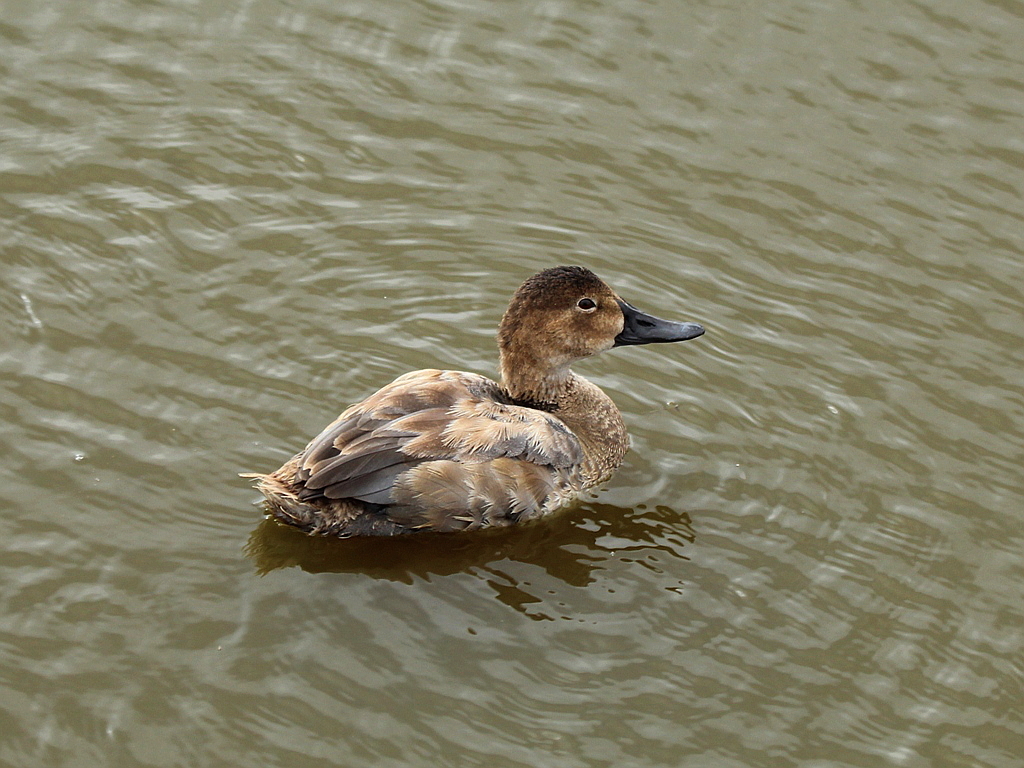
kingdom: Animalia
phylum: Chordata
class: Aves
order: Anseriformes
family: Anatidae
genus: Aythya
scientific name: Aythya ferina
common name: Common pochard
